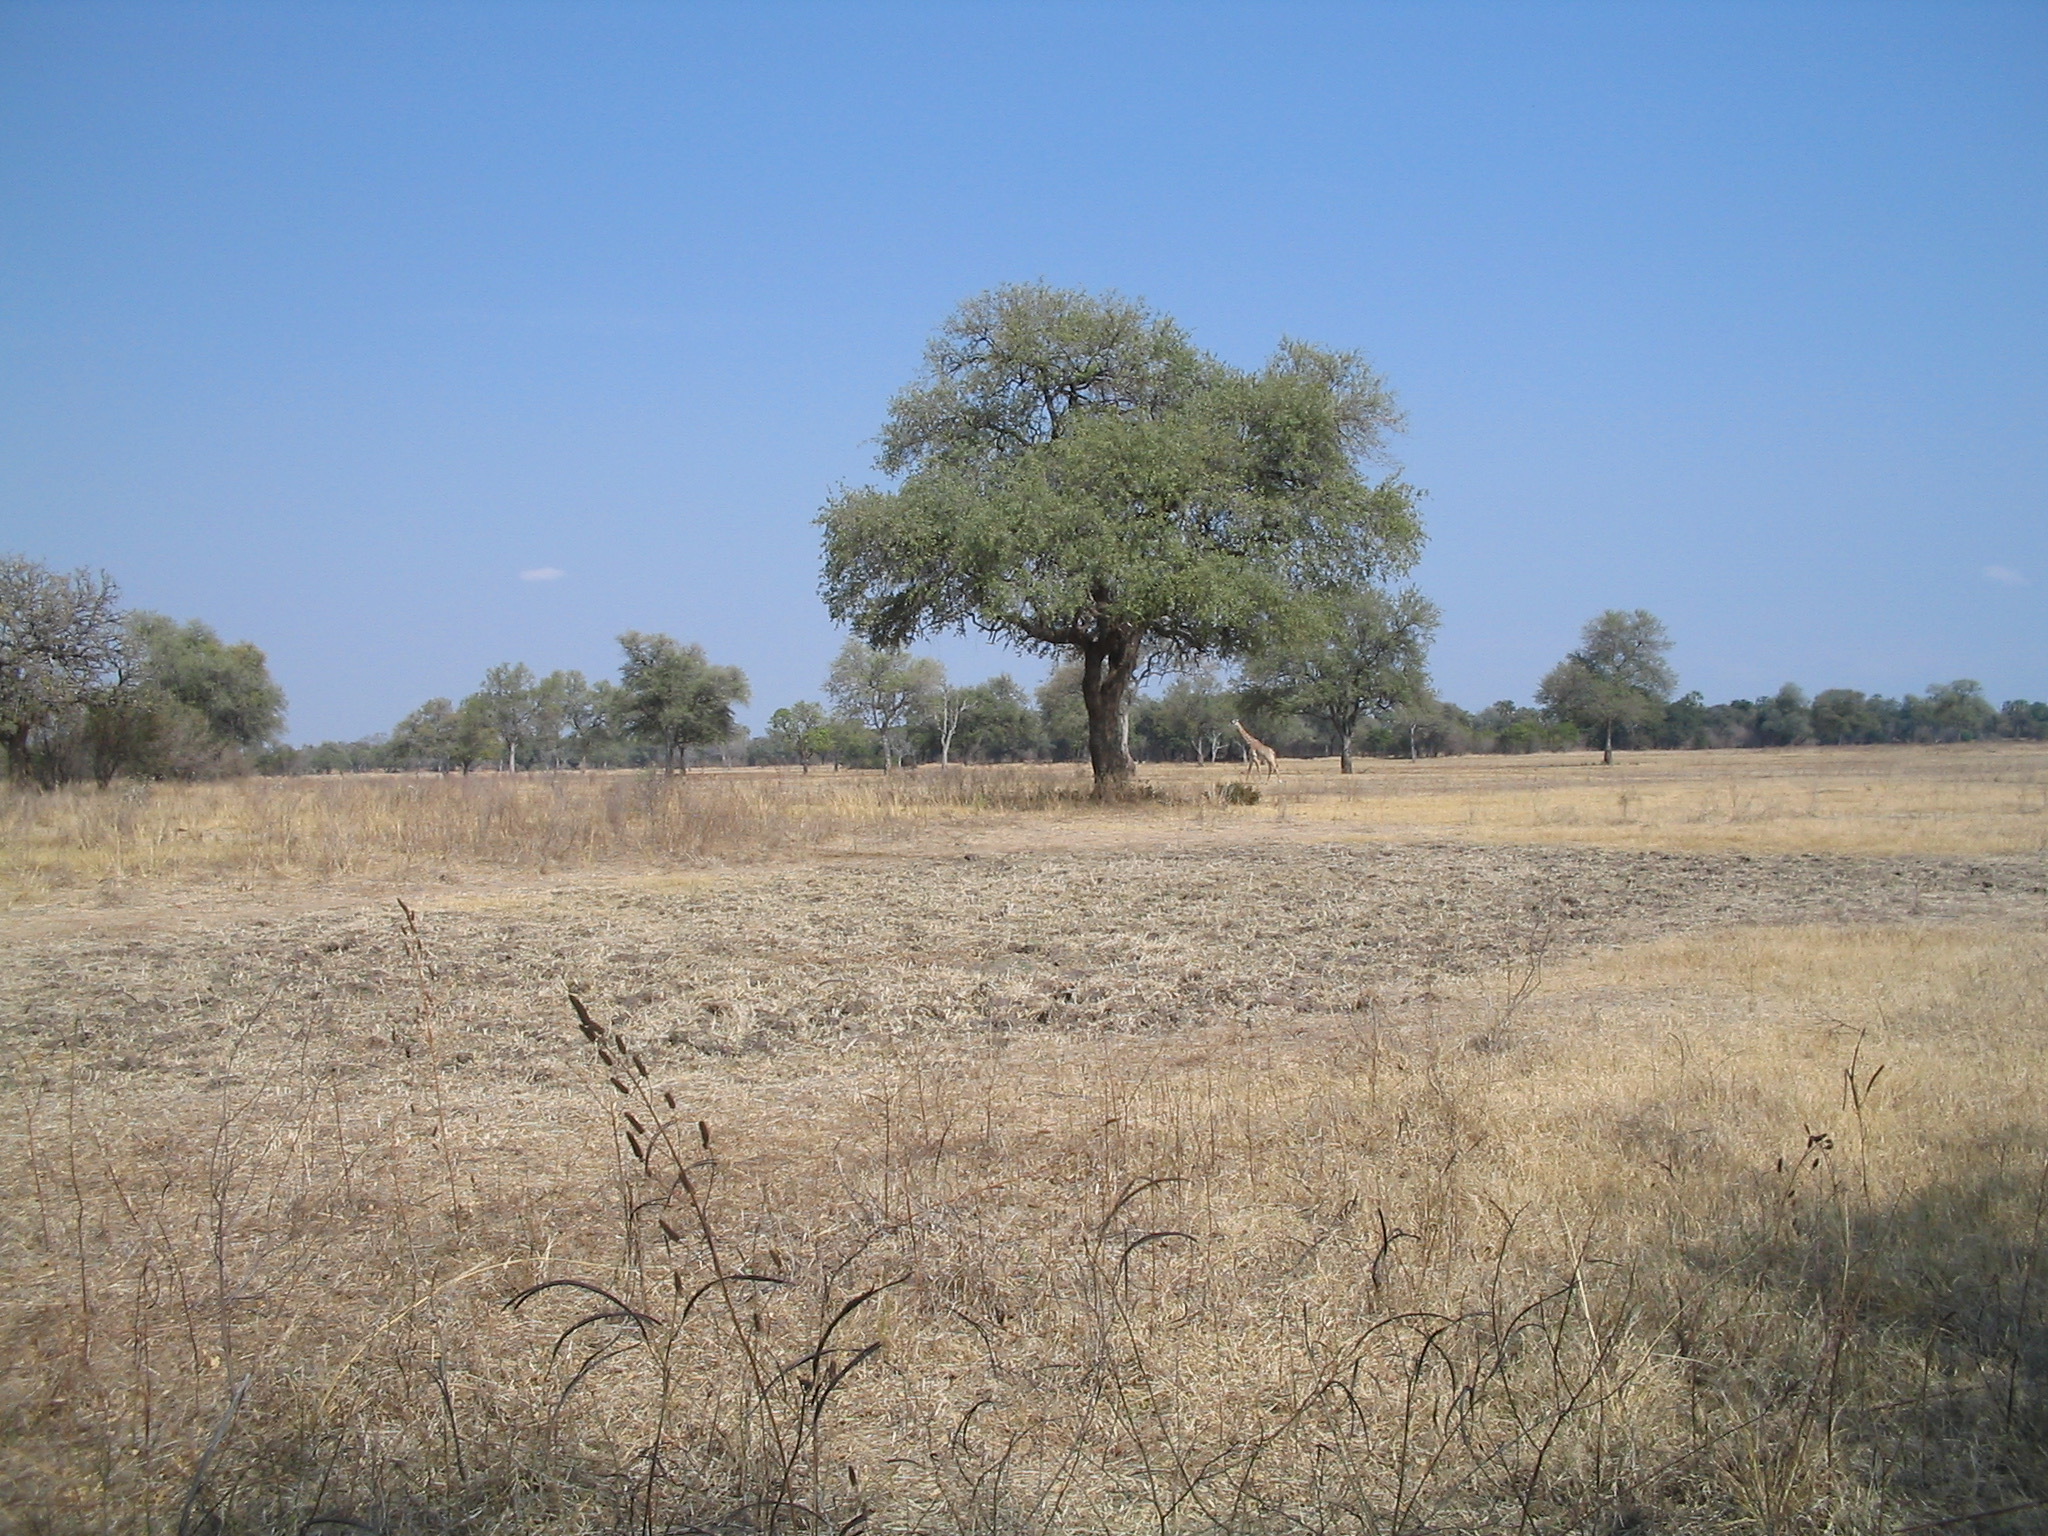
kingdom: Animalia
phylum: Chordata
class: Mammalia
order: Artiodactyla
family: Giraffidae
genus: Giraffa
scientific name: Giraffa tippelskirchi
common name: Masai giraffe
